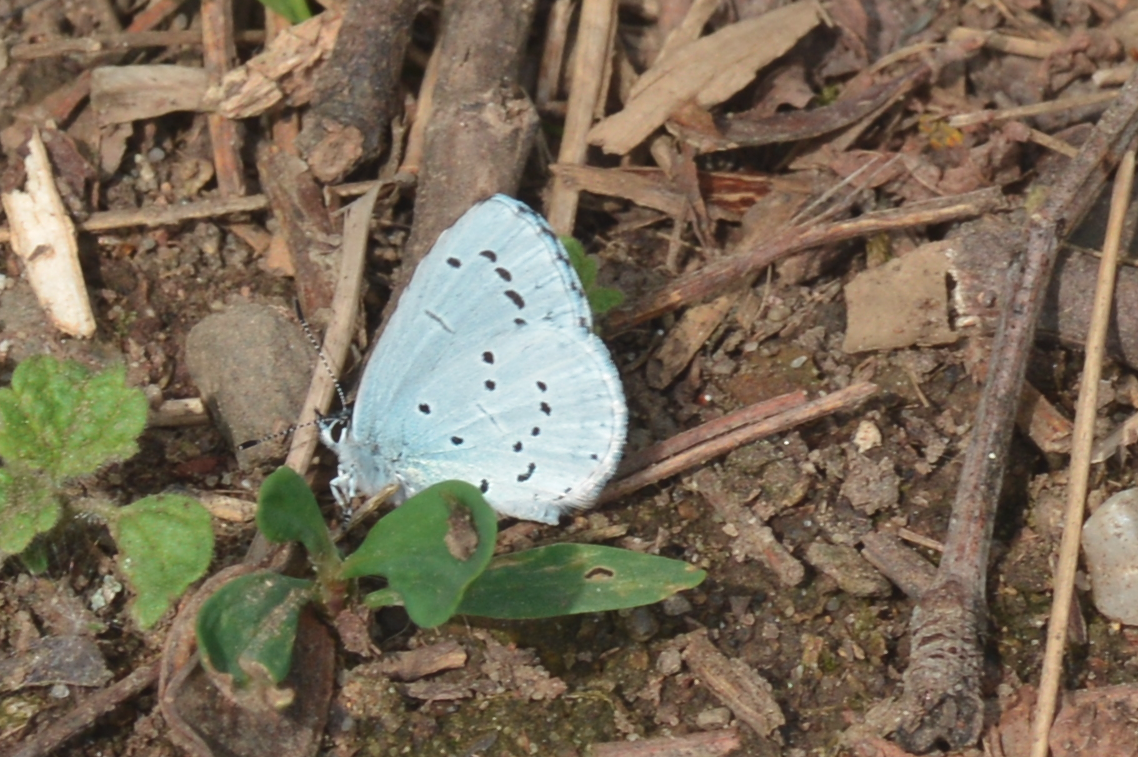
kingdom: Animalia
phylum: Arthropoda
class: Insecta
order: Lepidoptera
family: Lycaenidae
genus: Celastrina
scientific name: Celastrina argiolus
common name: Holly blue
